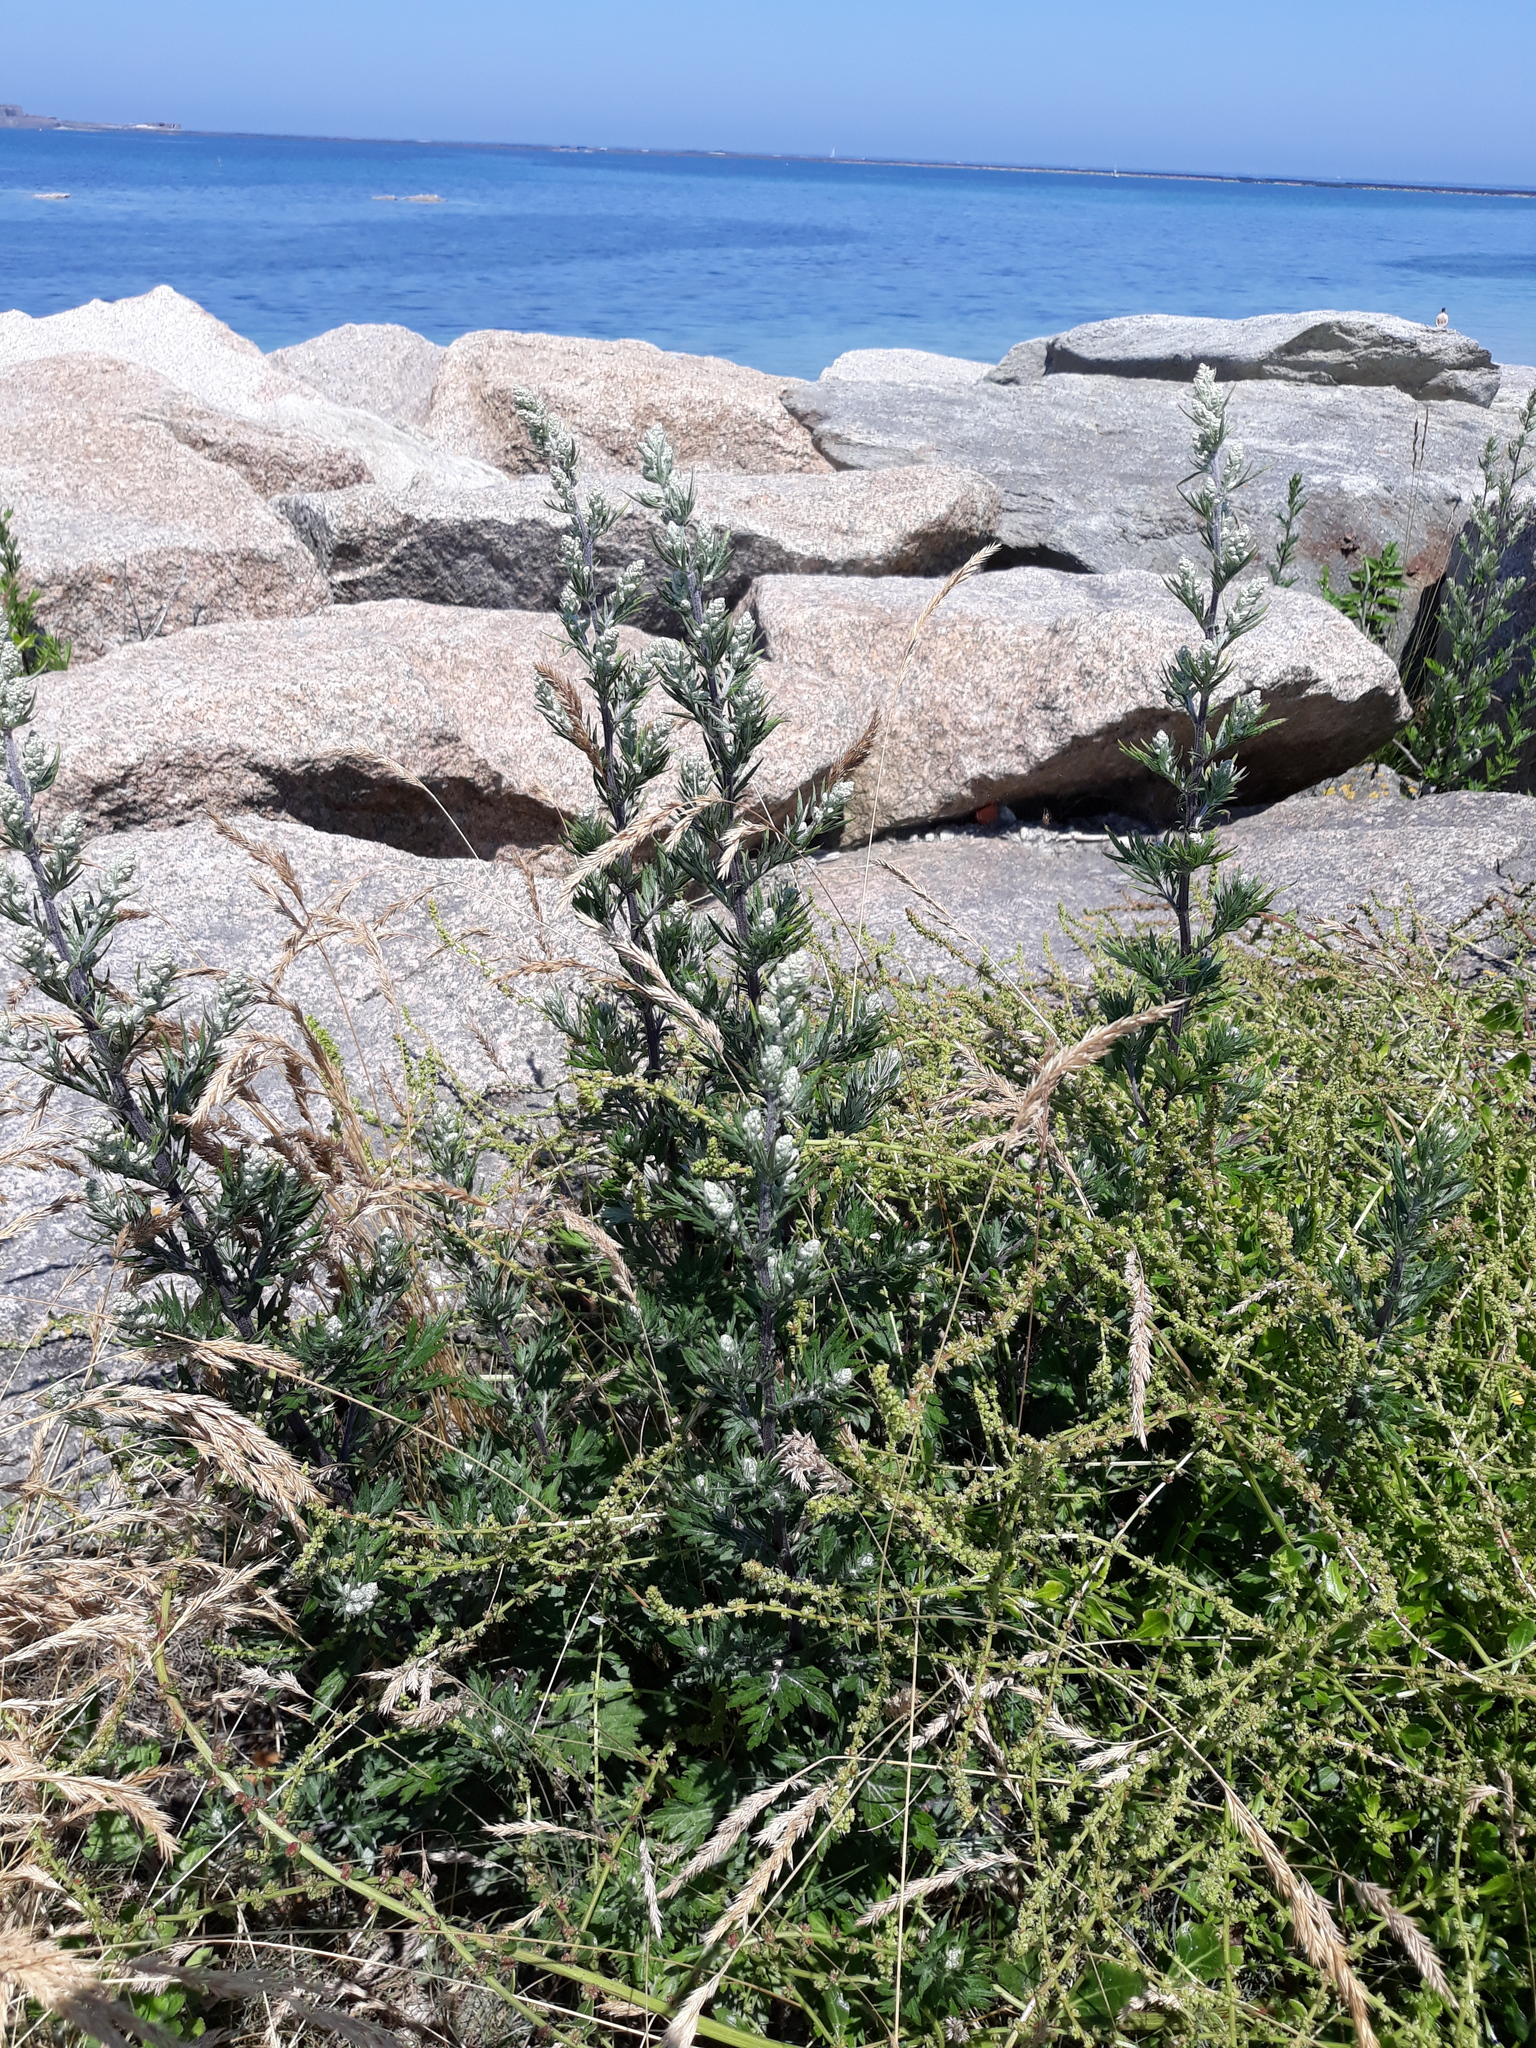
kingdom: Plantae
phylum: Tracheophyta
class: Magnoliopsida
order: Asterales
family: Asteraceae
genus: Artemisia
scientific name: Artemisia vulgaris
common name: Mugwort
